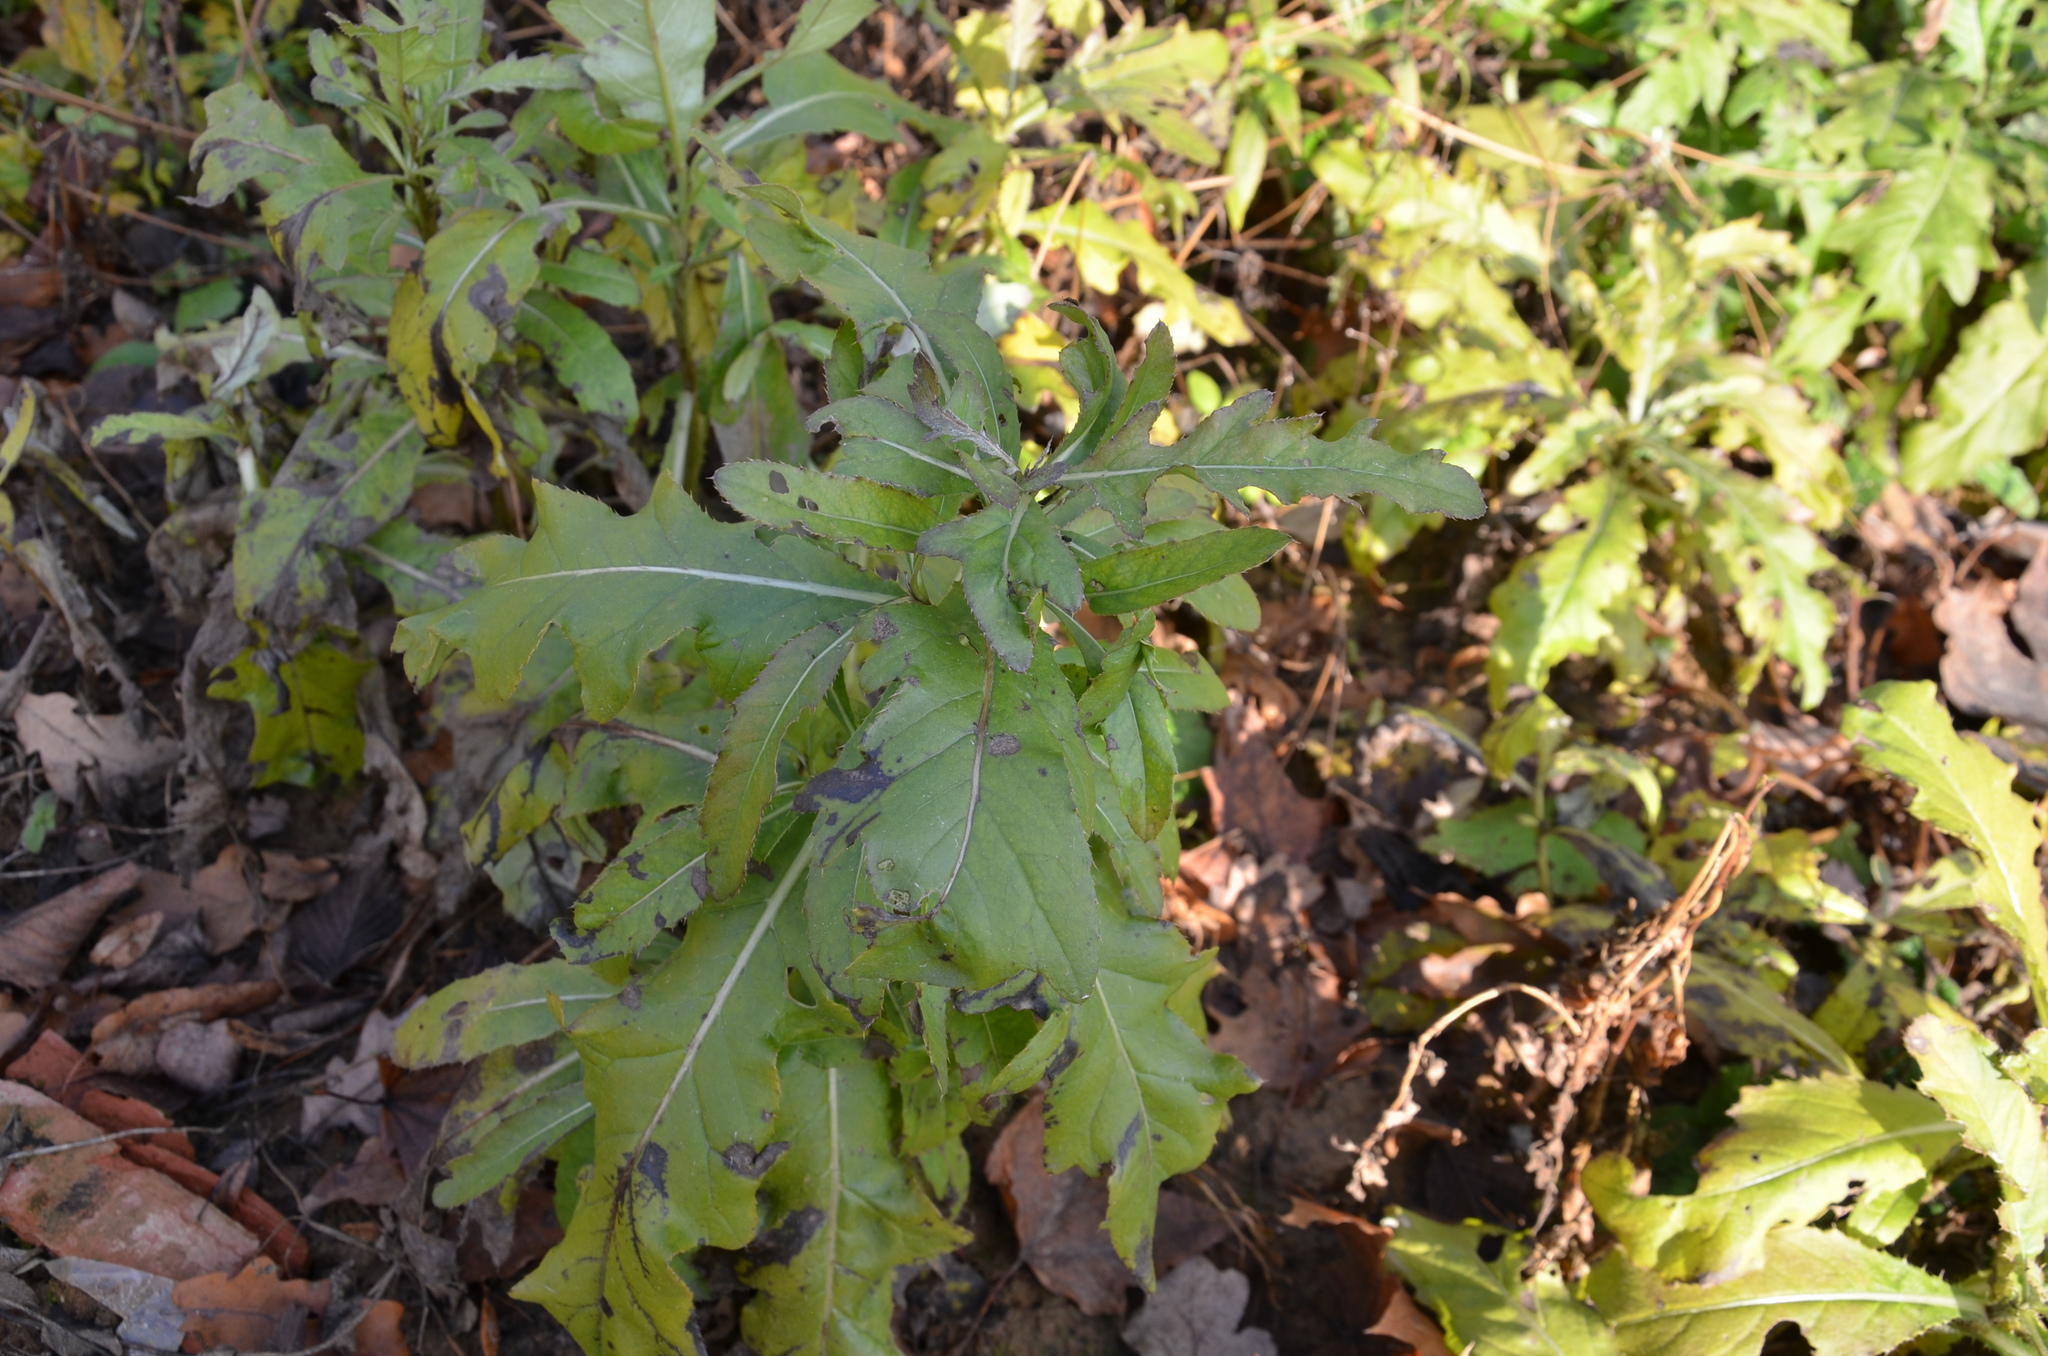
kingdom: Plantae
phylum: Tracheophyta
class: Magnoliopsida
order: Asterales
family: Asteraceae
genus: Cirsium
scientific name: Cirsium arvense
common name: Creeping thistle
